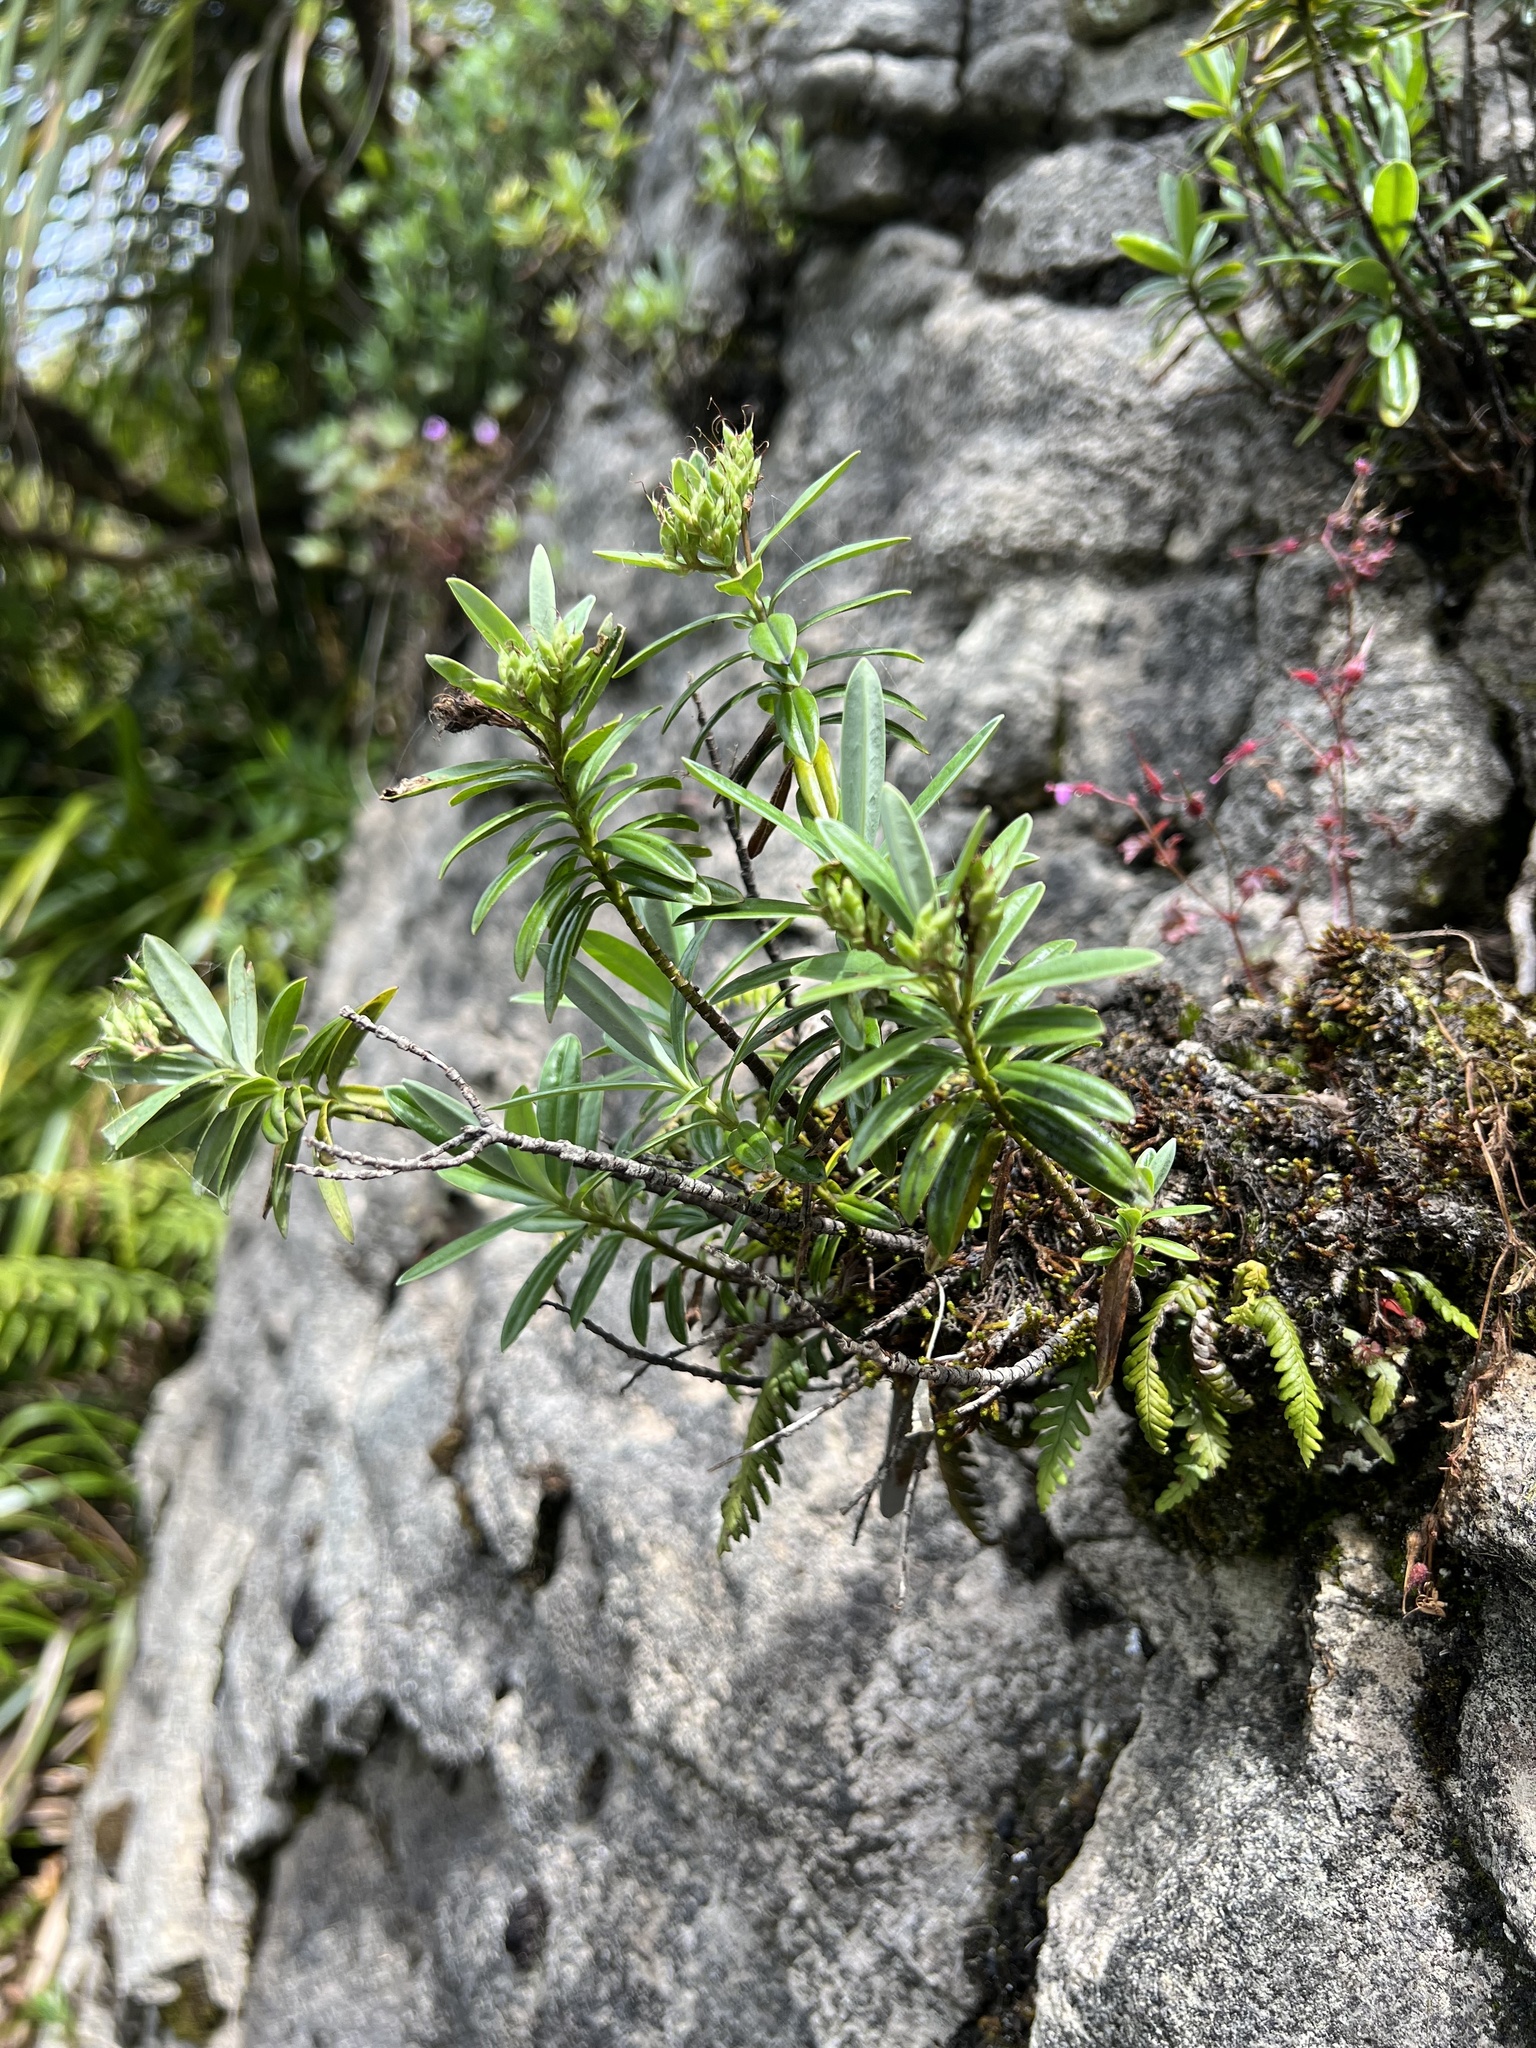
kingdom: Plantae
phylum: Tracheophyta
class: Magnoliopsida
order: Lamiales
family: Plantaginaceae
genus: Veronica
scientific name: Veronica scopulorum
